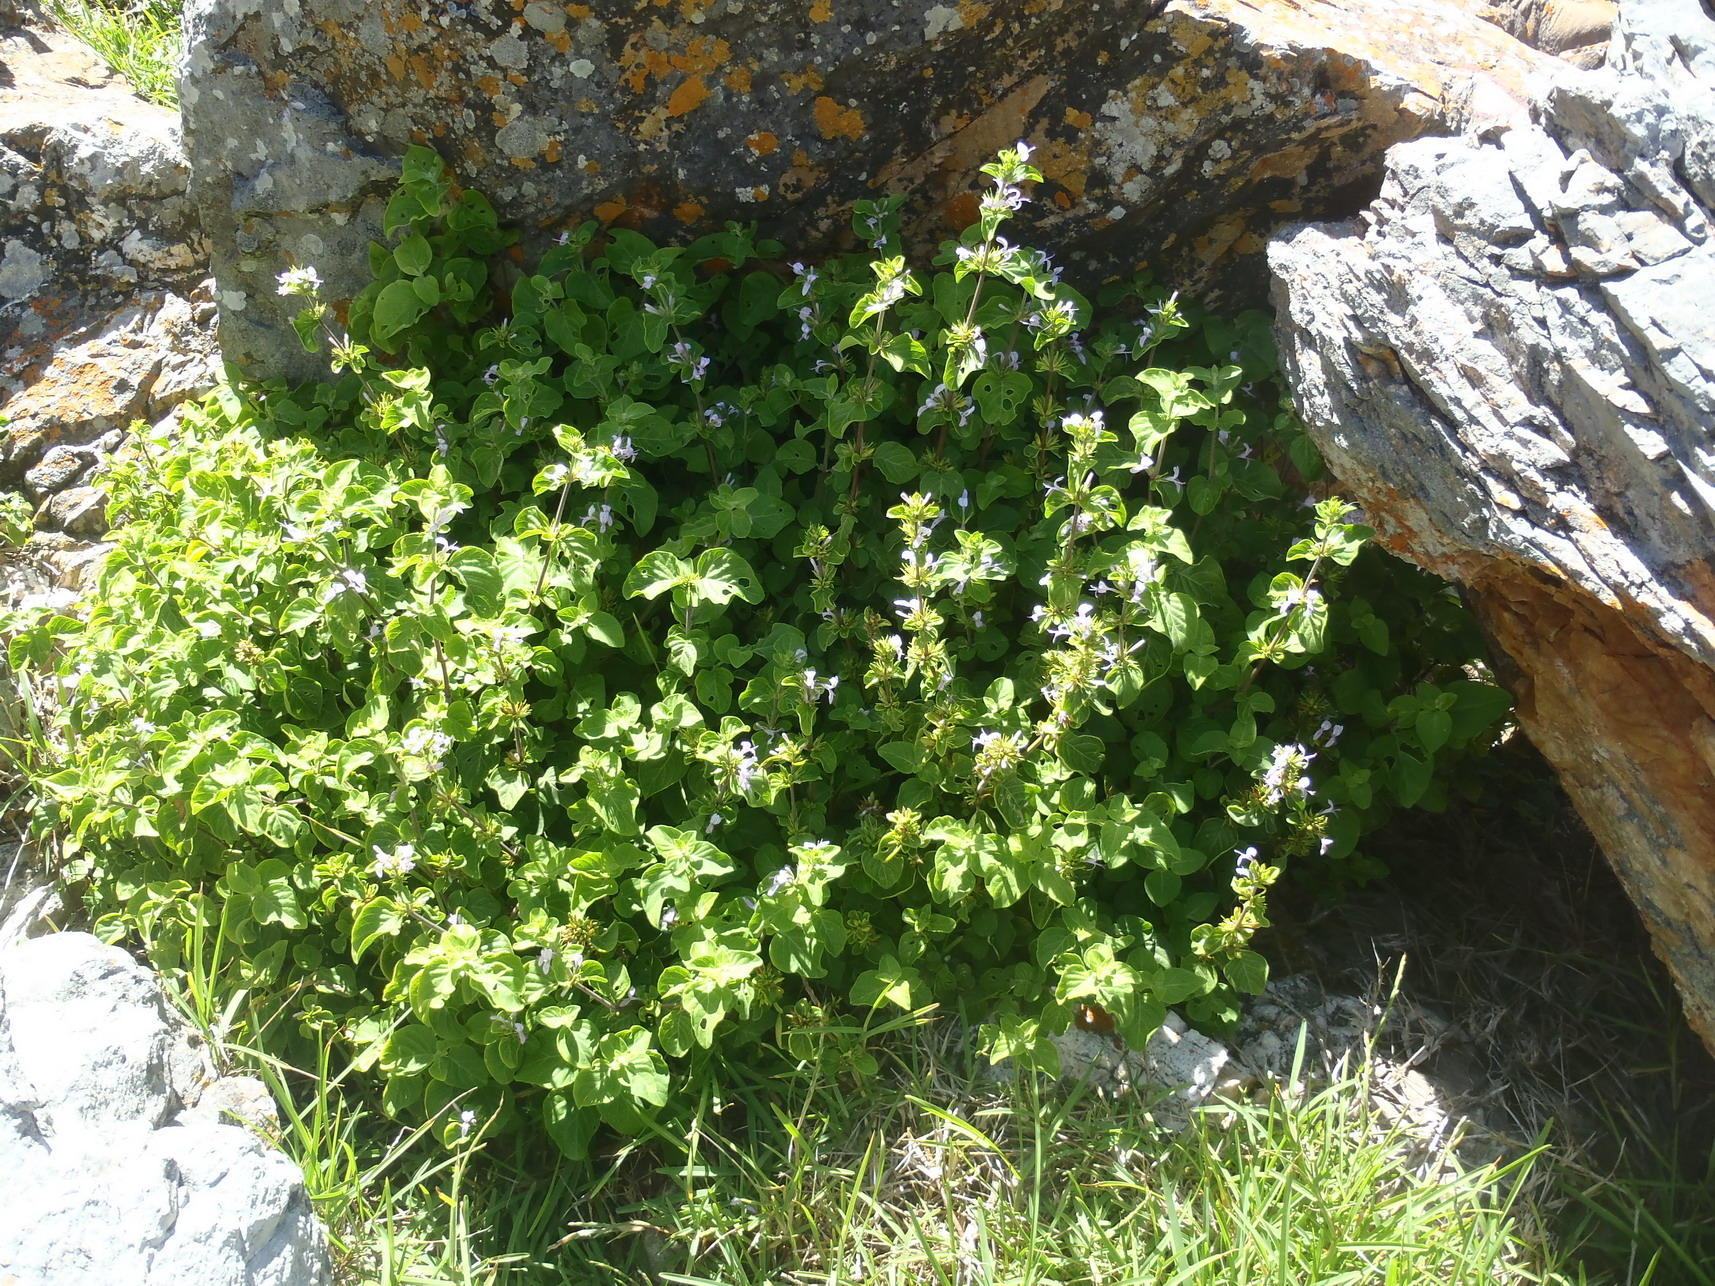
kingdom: Plantae
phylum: Tracheophyta
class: Magnoliopsida
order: Lamiales
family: Acanthaceae
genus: Hypoestes
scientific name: Hypoestes aristata
